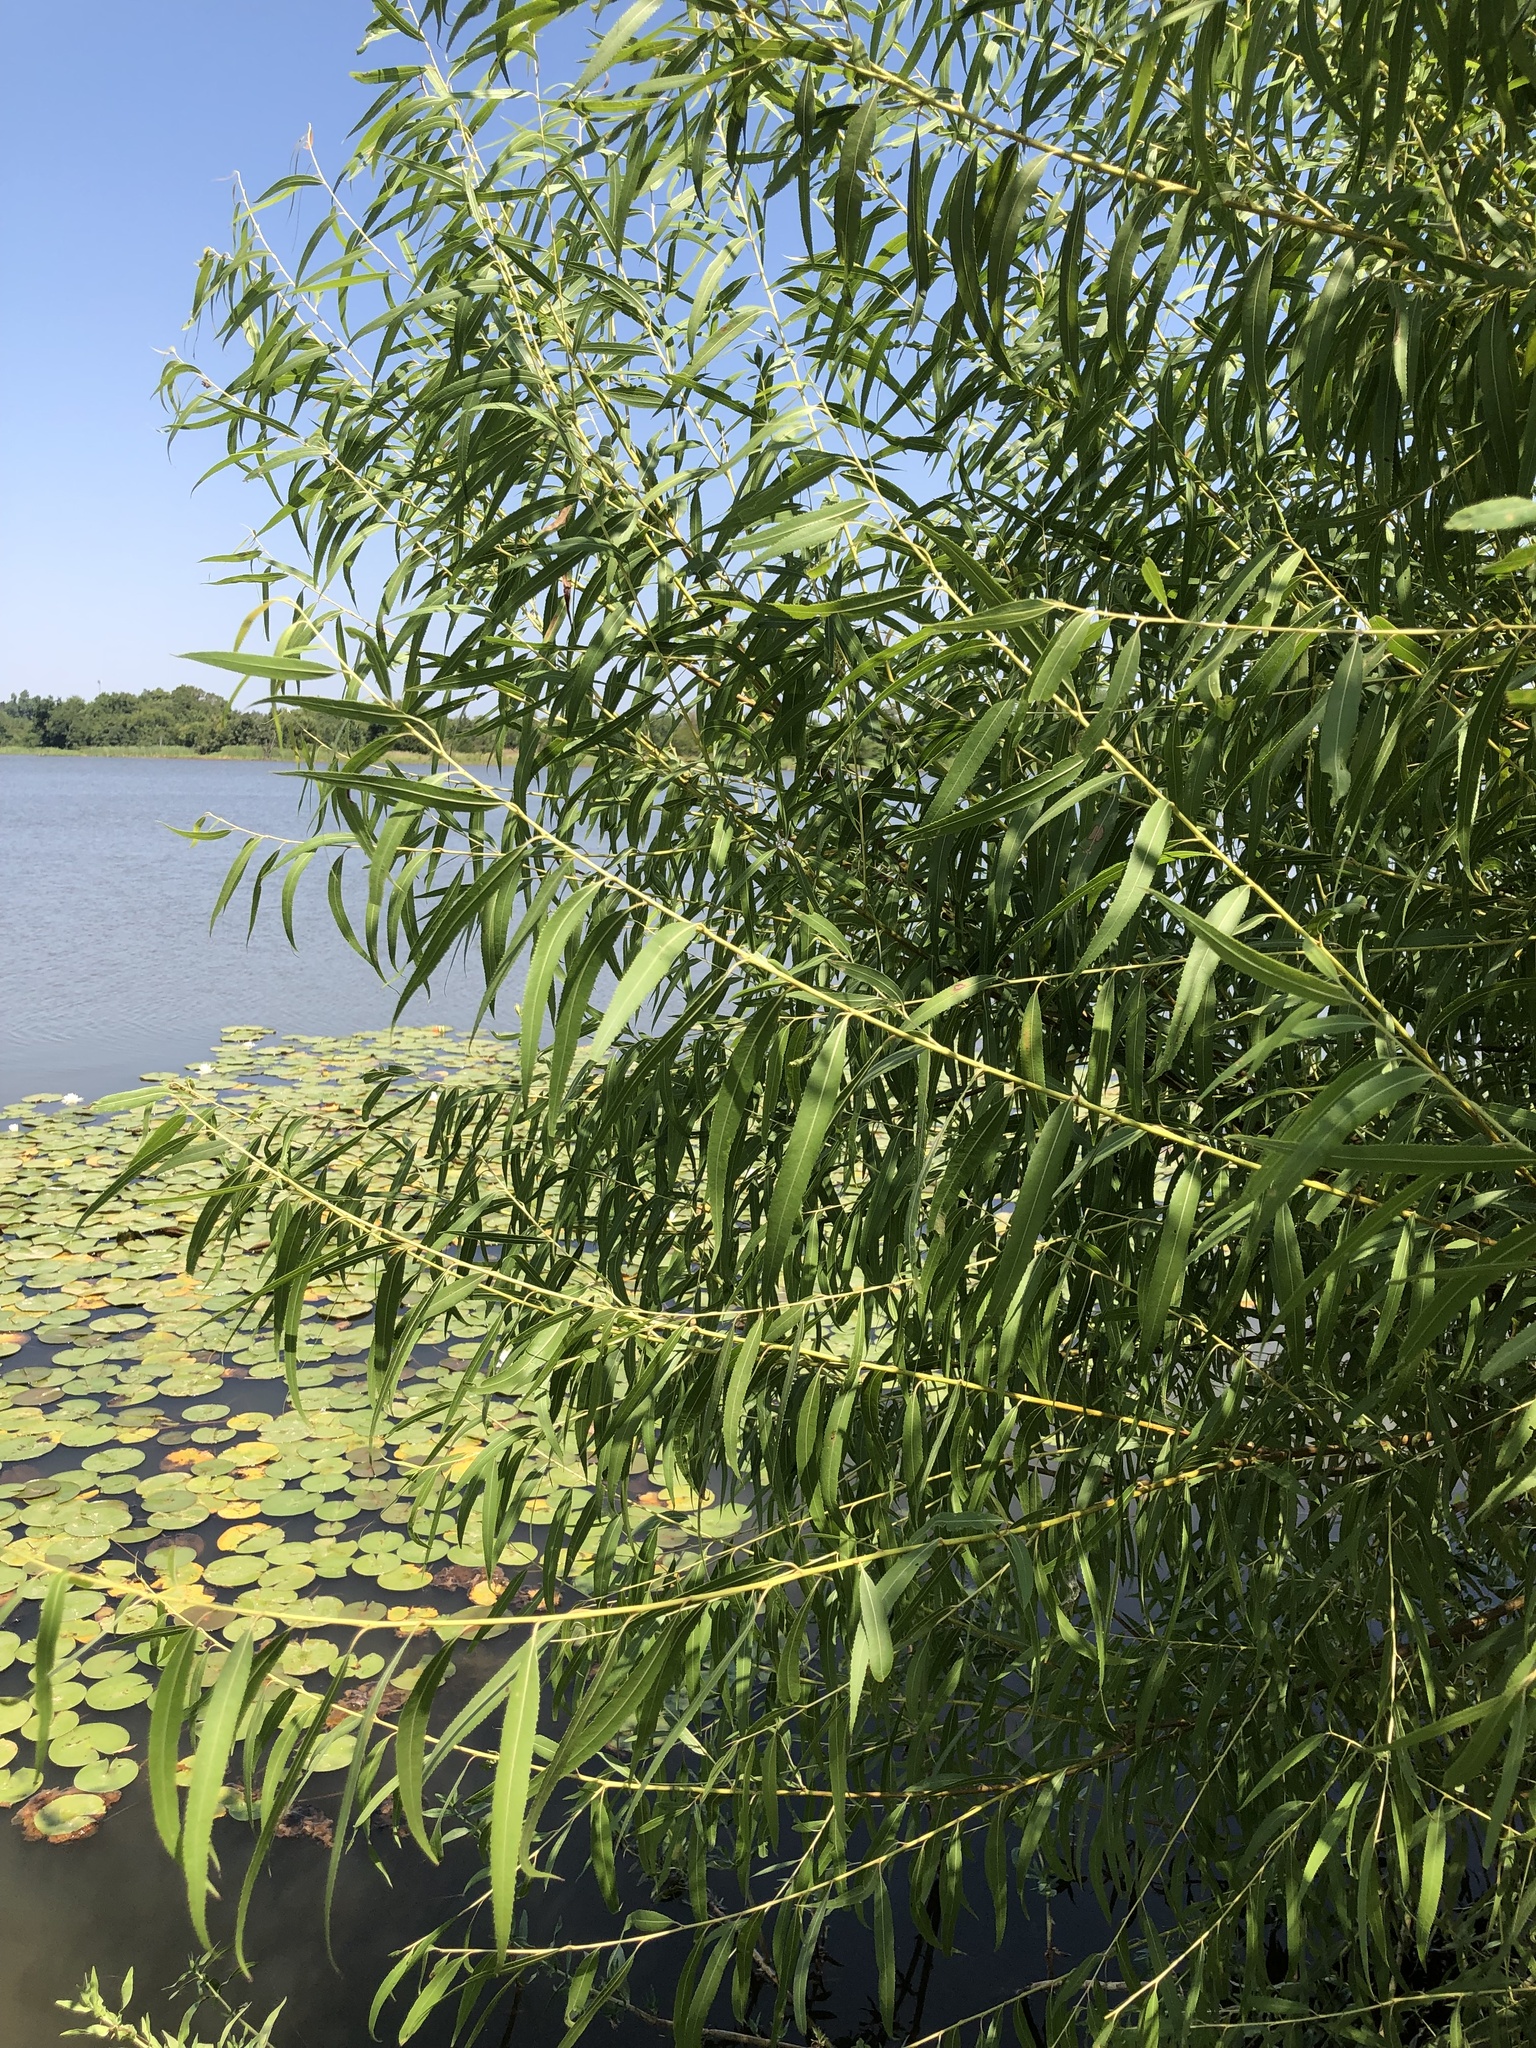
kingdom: Plantae
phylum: Tracheophyta
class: Magnoliopsida
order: Malpighiales
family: Salicaceae
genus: Salix
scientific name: Salix nigra
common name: Black willow
